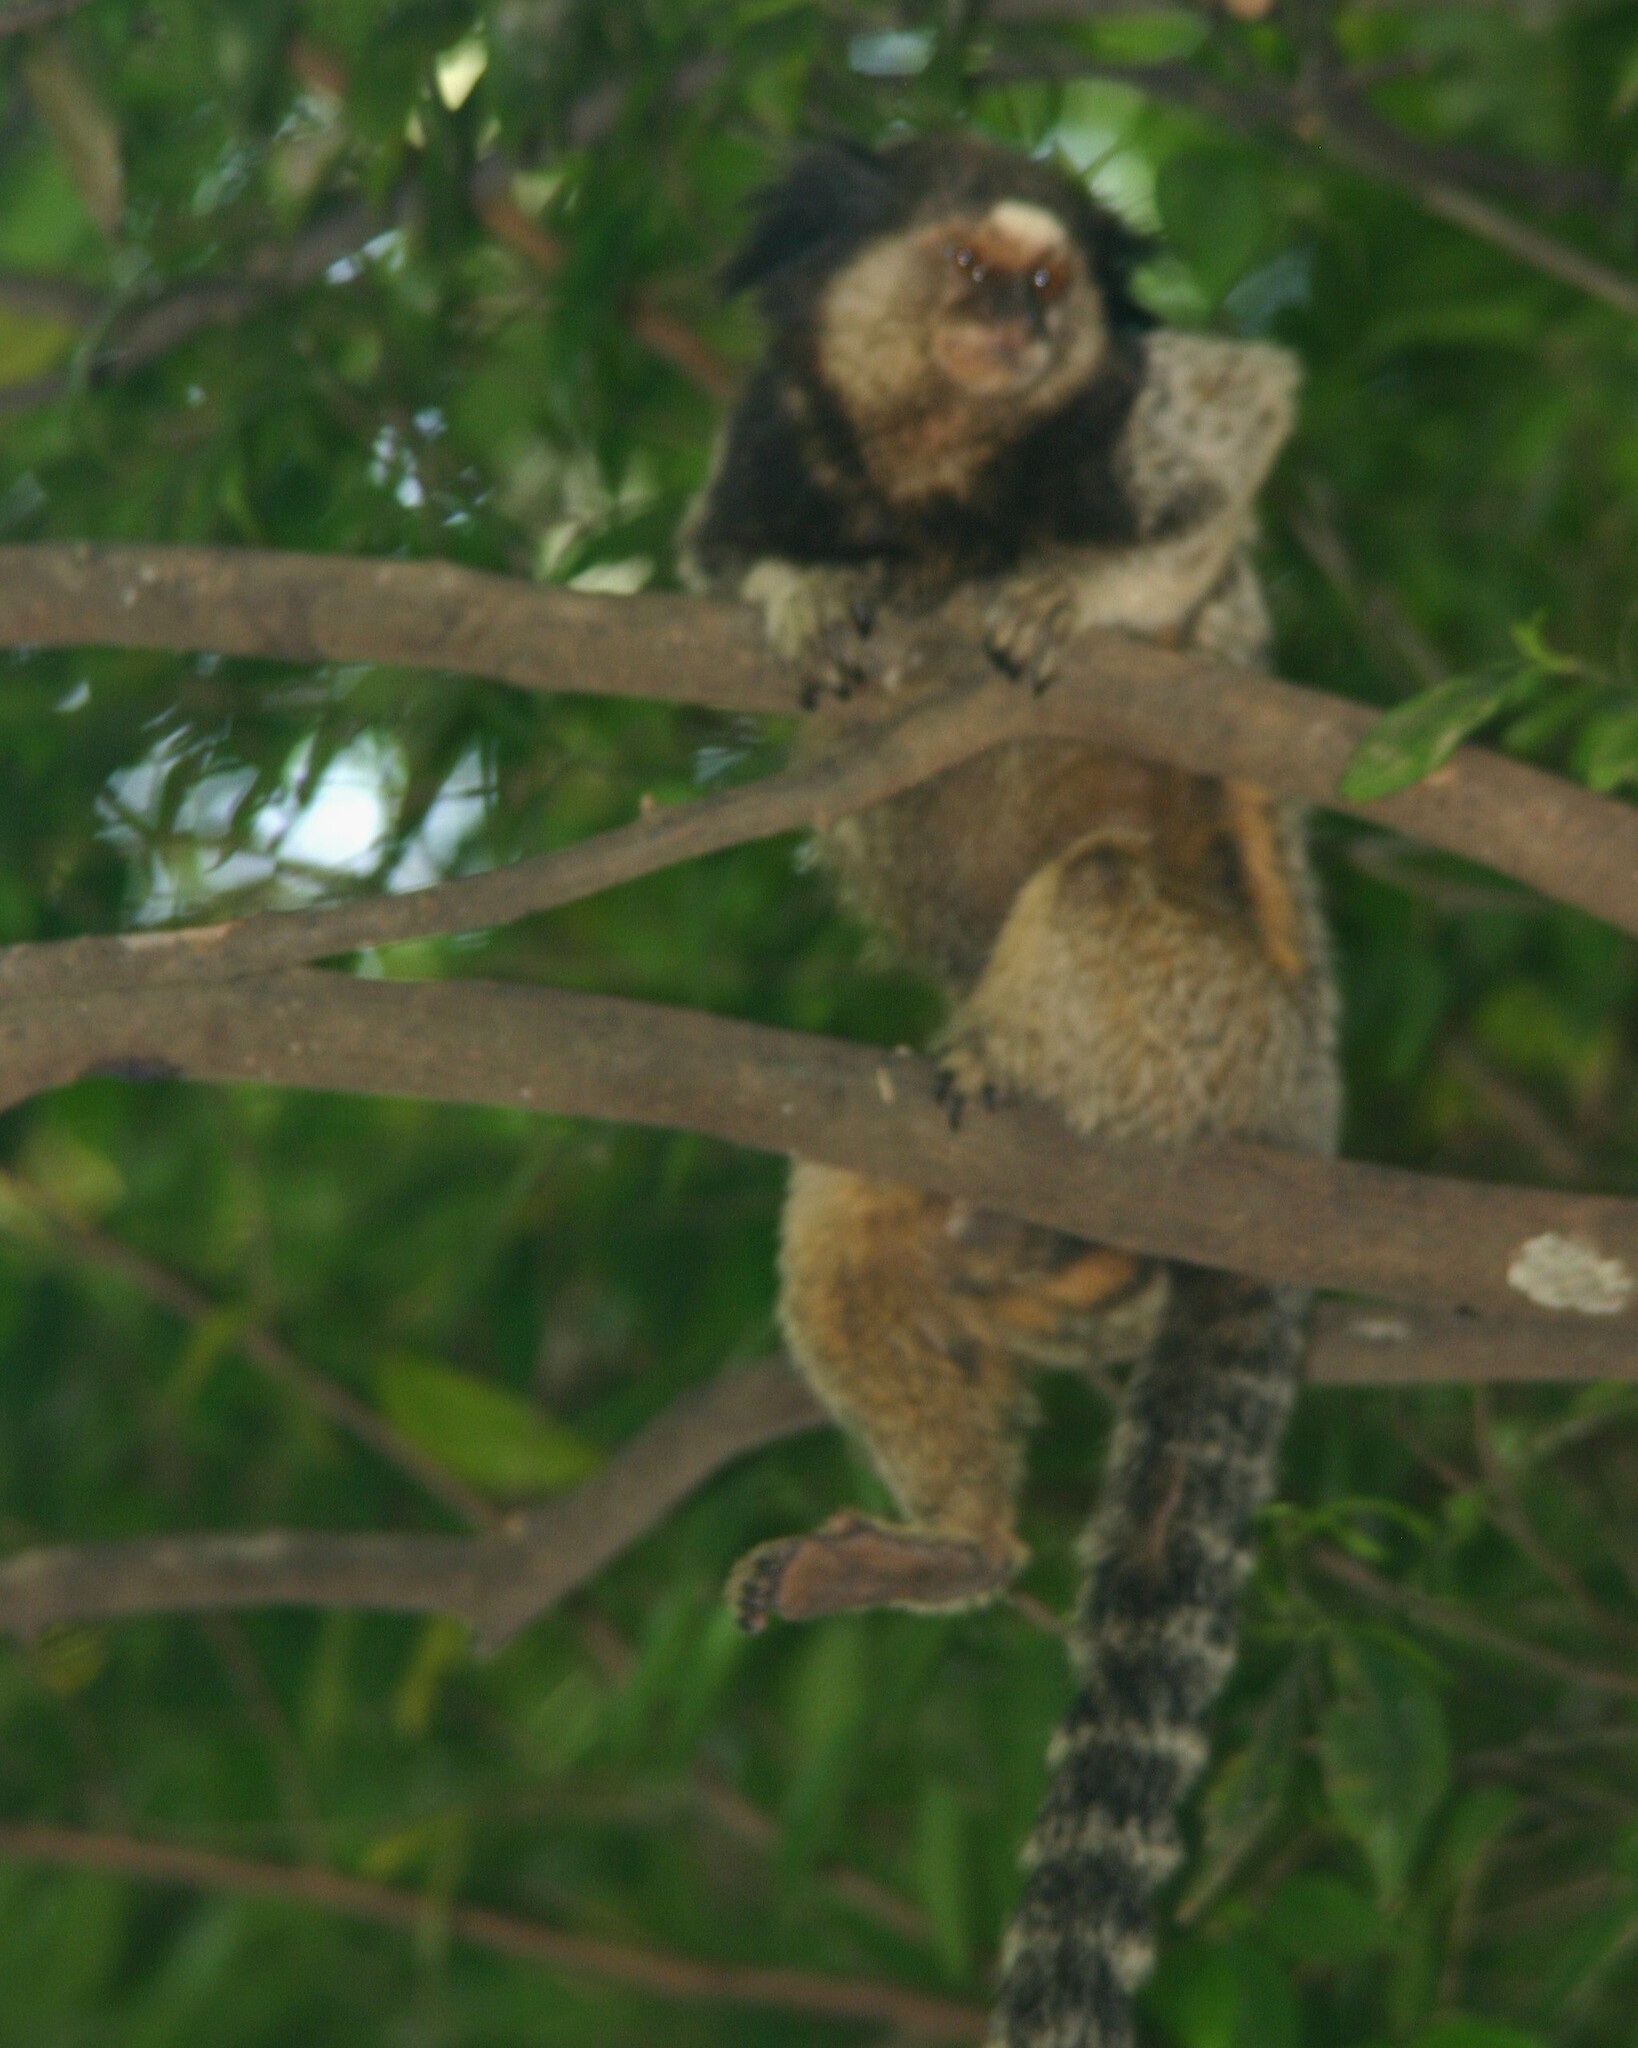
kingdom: Animalia
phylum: Chordata
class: Mammalia
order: Primates
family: Callitrichidae
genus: Callithrix
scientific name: Callithrix penicillata
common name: Black-tufted marmoset
